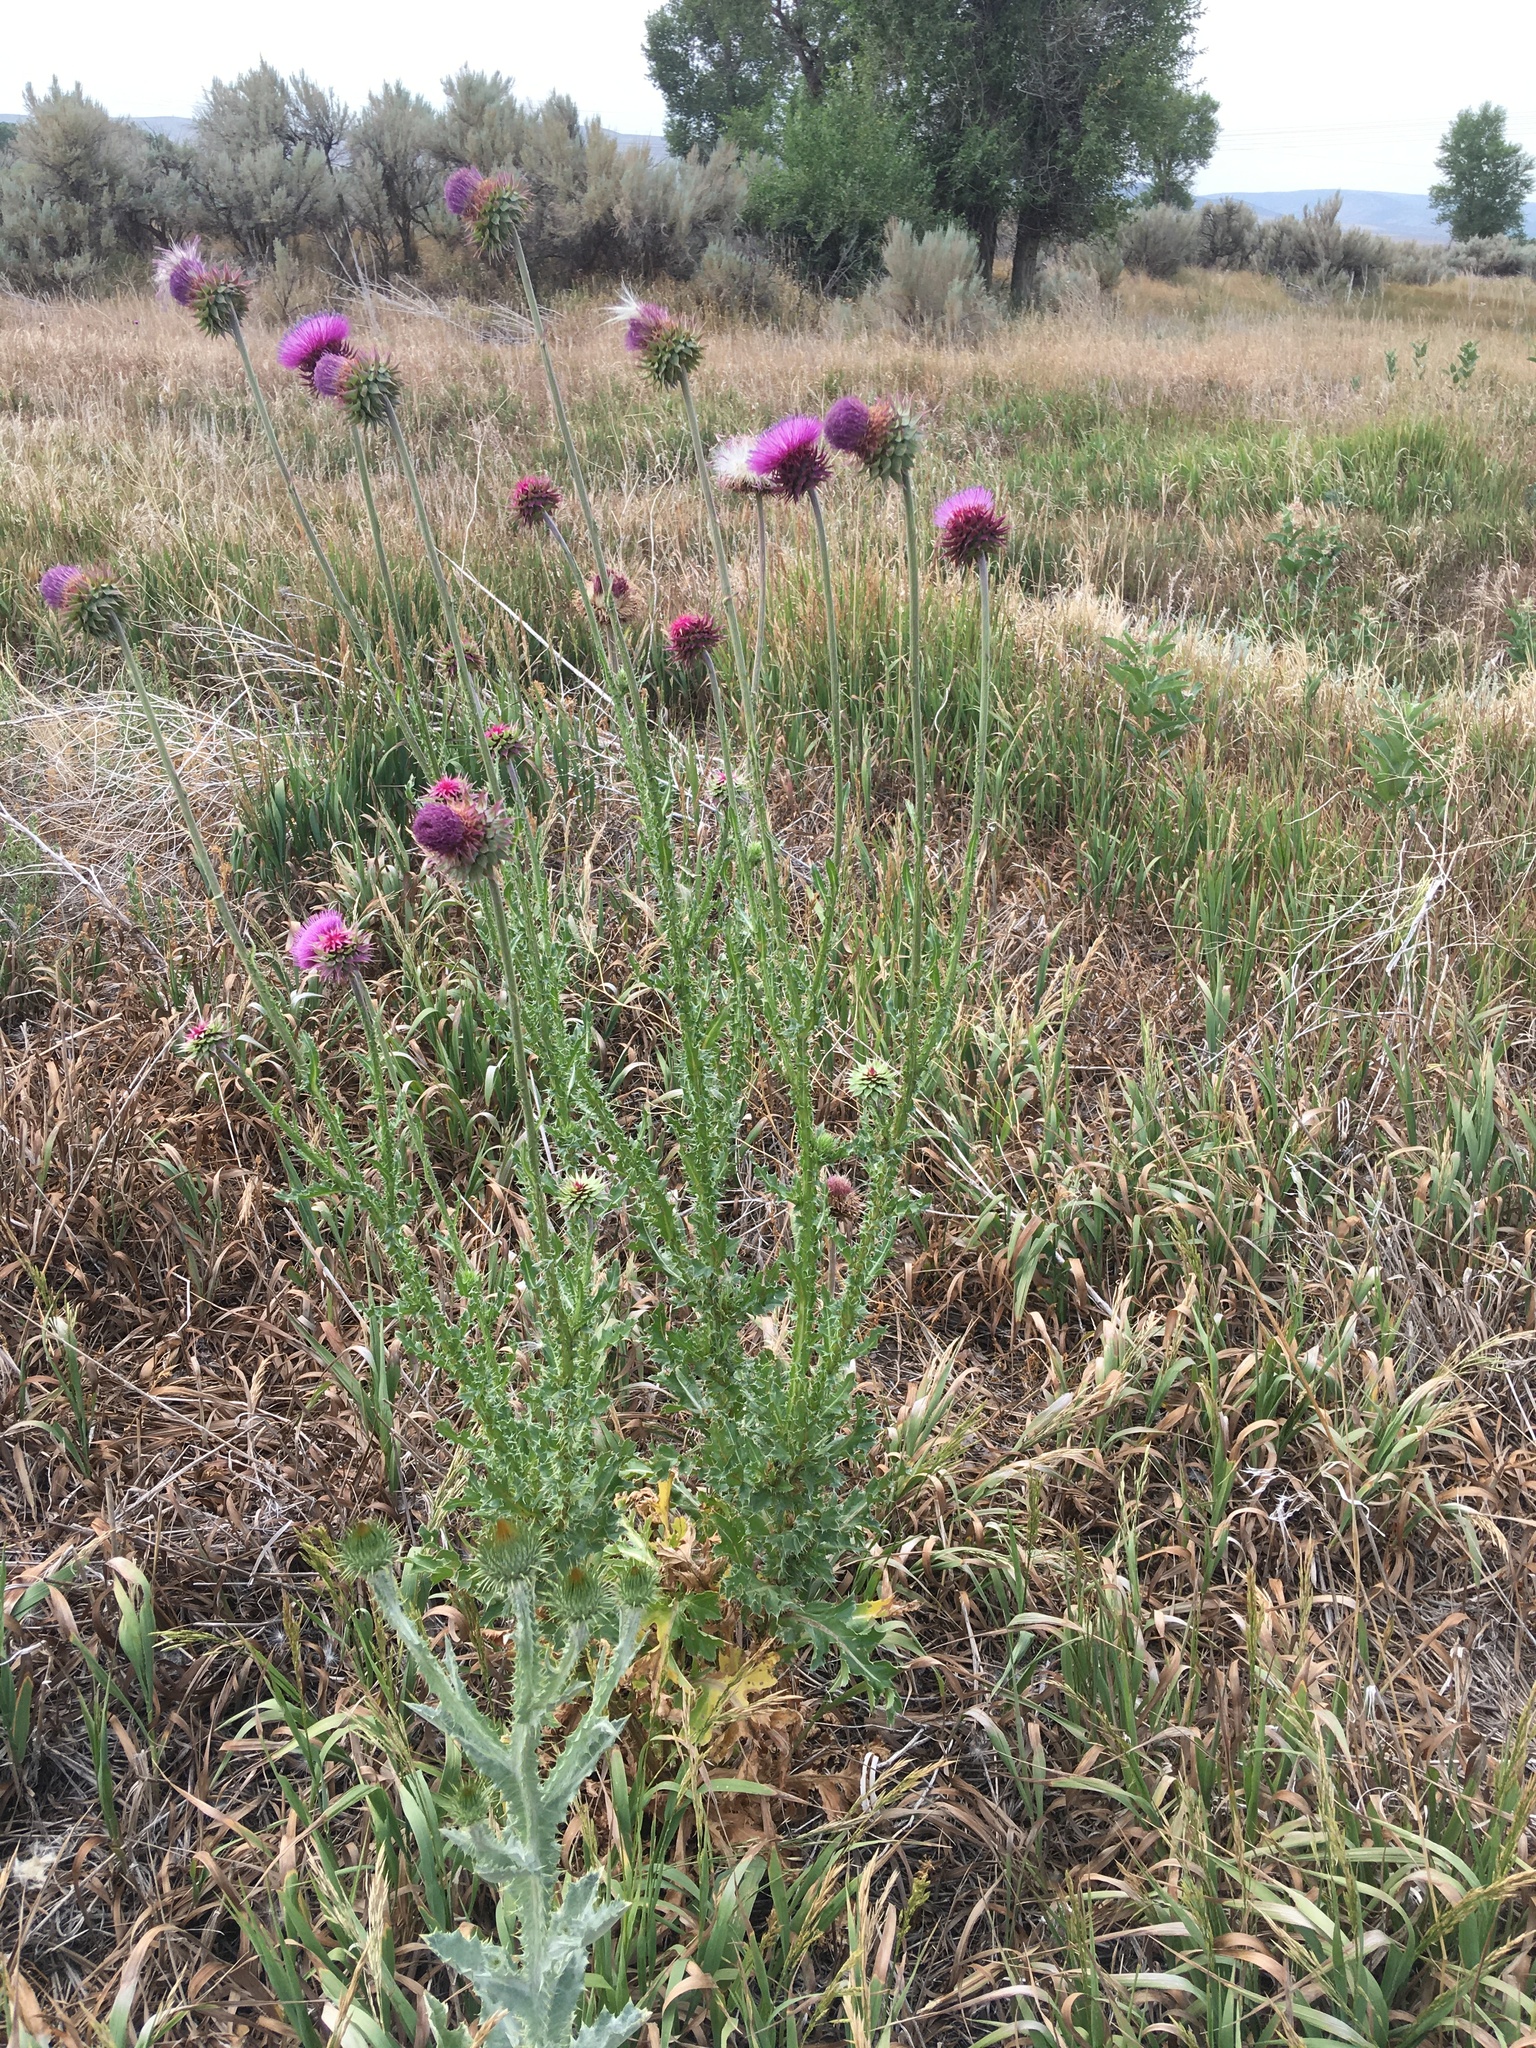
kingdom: Plantae
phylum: Tracheophyta
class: Magnoliopsida
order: Asterales
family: Asteraceae
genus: Carduus
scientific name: Carduus nutans
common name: Musk thistle
